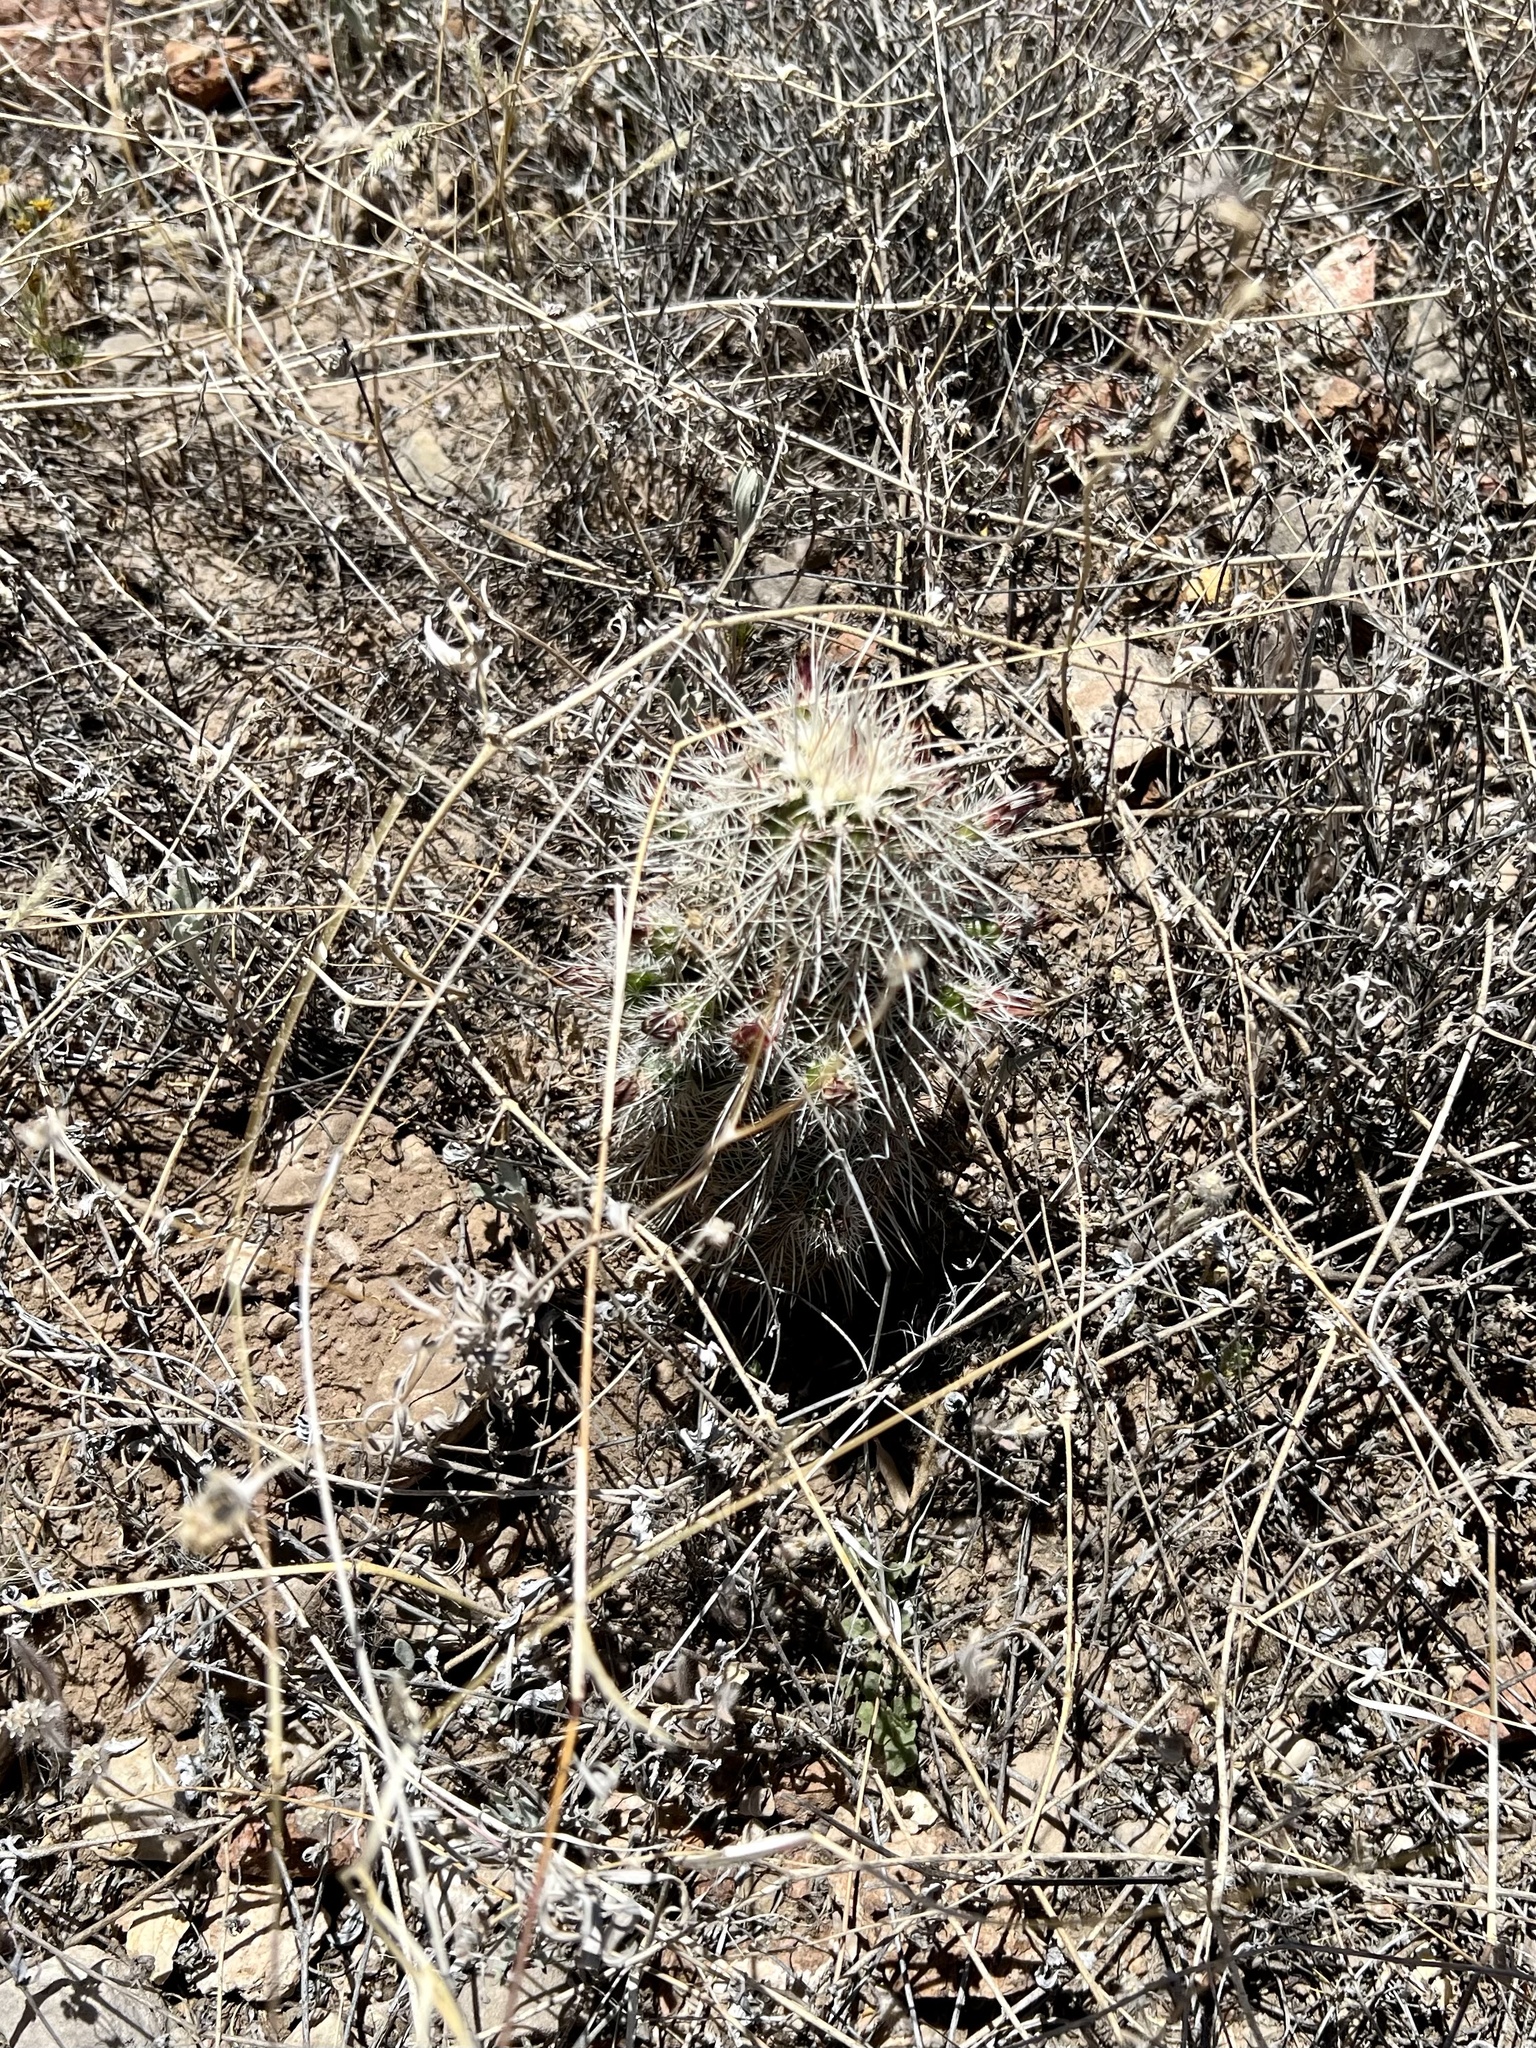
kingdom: Plantae
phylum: Tracheophyta
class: Magnoliopsida
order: Caryophyllales
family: Cactaceae
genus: Echinocereus
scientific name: Echinocereus viridiflorus
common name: Nylon hedgehog cactus
